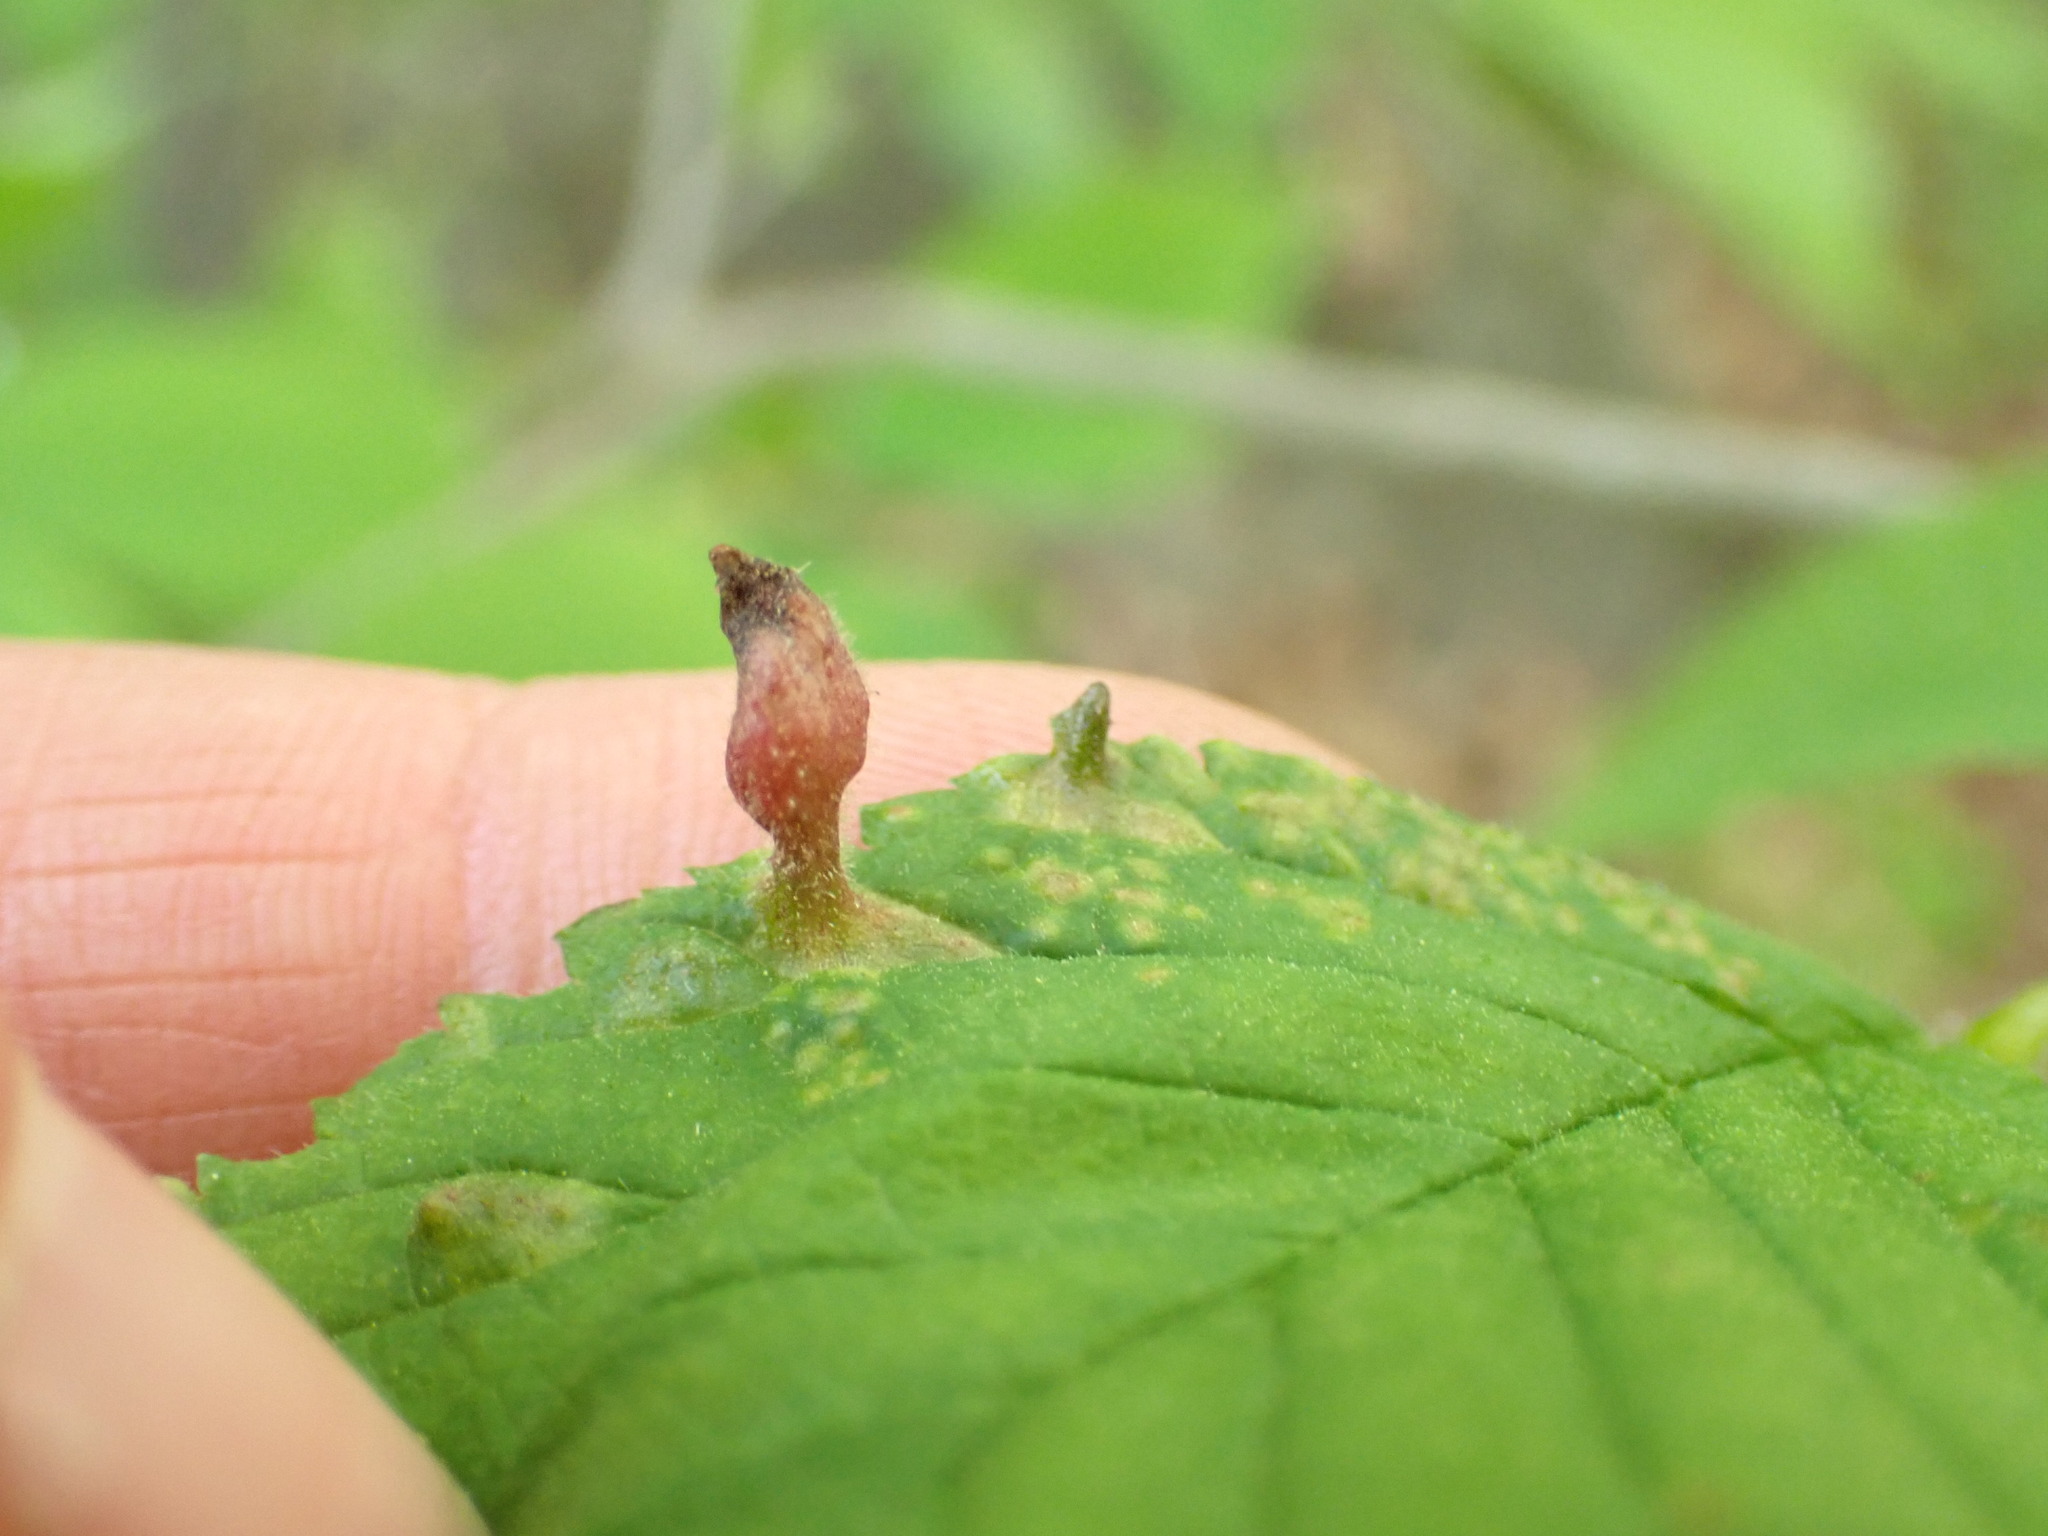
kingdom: Animalia
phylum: Arthropoda
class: Insecta
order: Hemiptera
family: Aphididae
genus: Tetraneura
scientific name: Tetraneura nigriabdominalis
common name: Aphid
